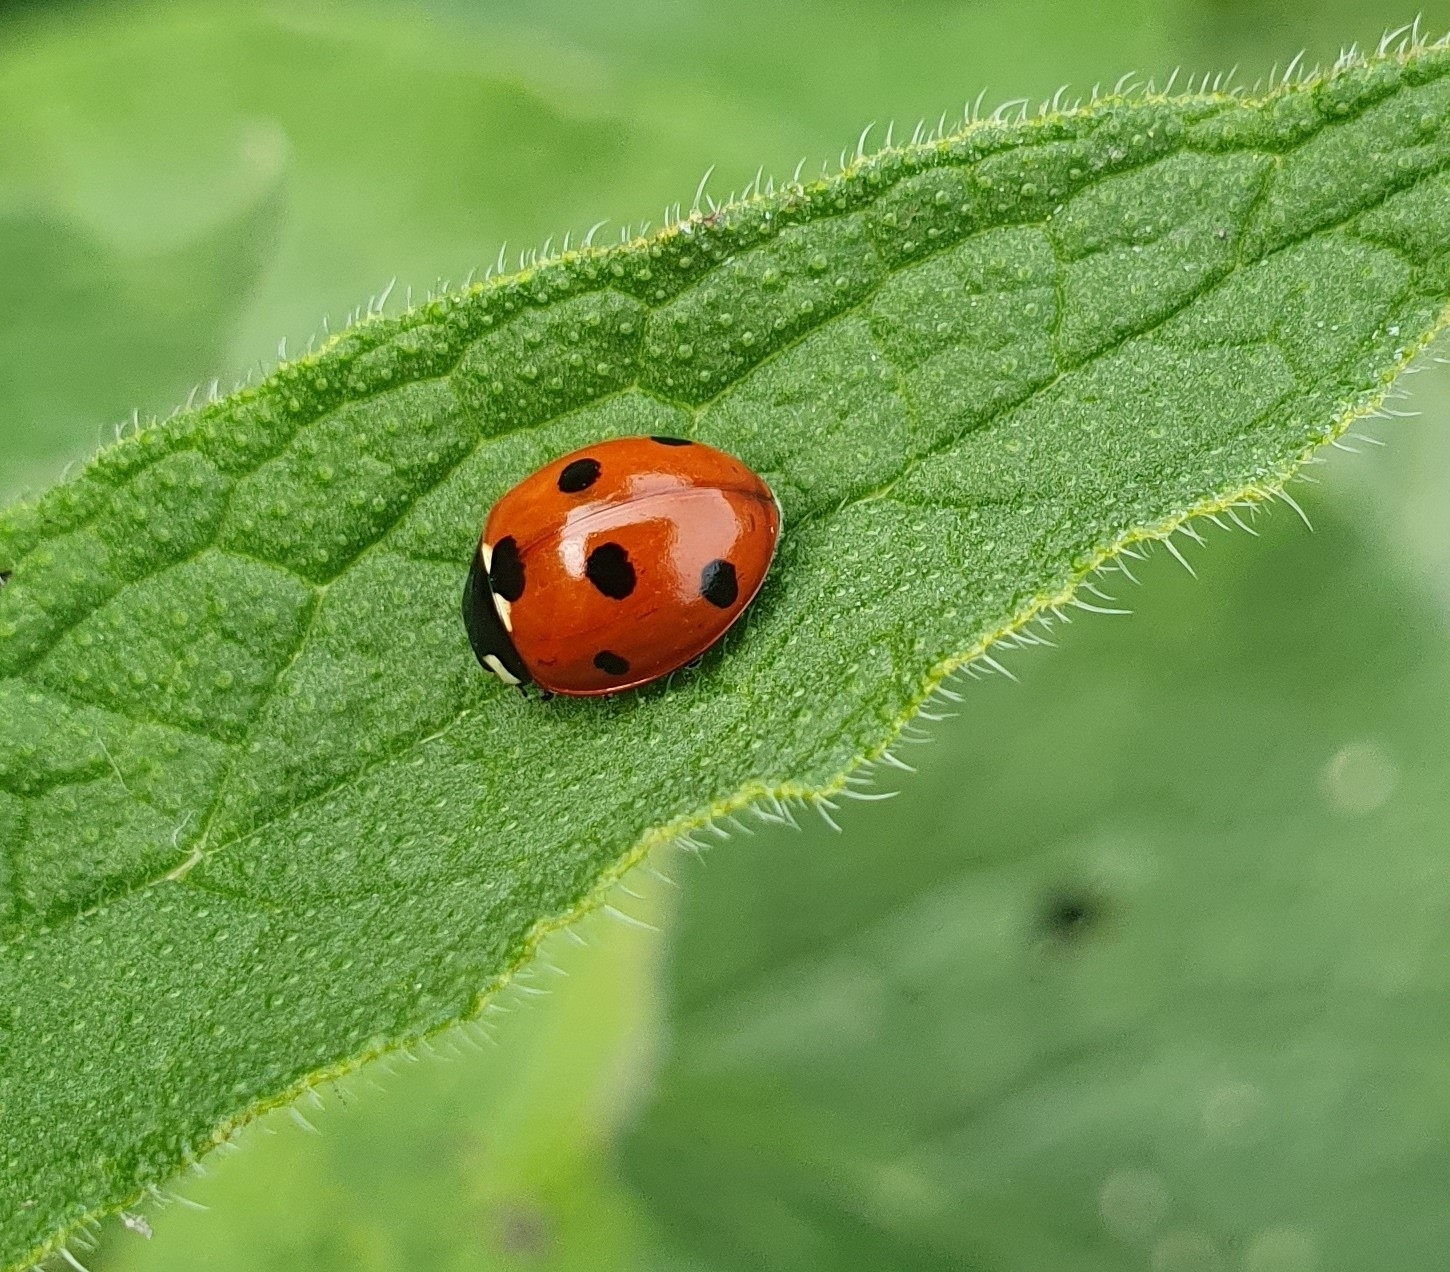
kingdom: Animalia
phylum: Arthropoda
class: Insecta
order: Coleoptera
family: Coccinellidae
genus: Coccinella
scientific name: Coccinella septempunctata
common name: Sevenspotted lady beetle
